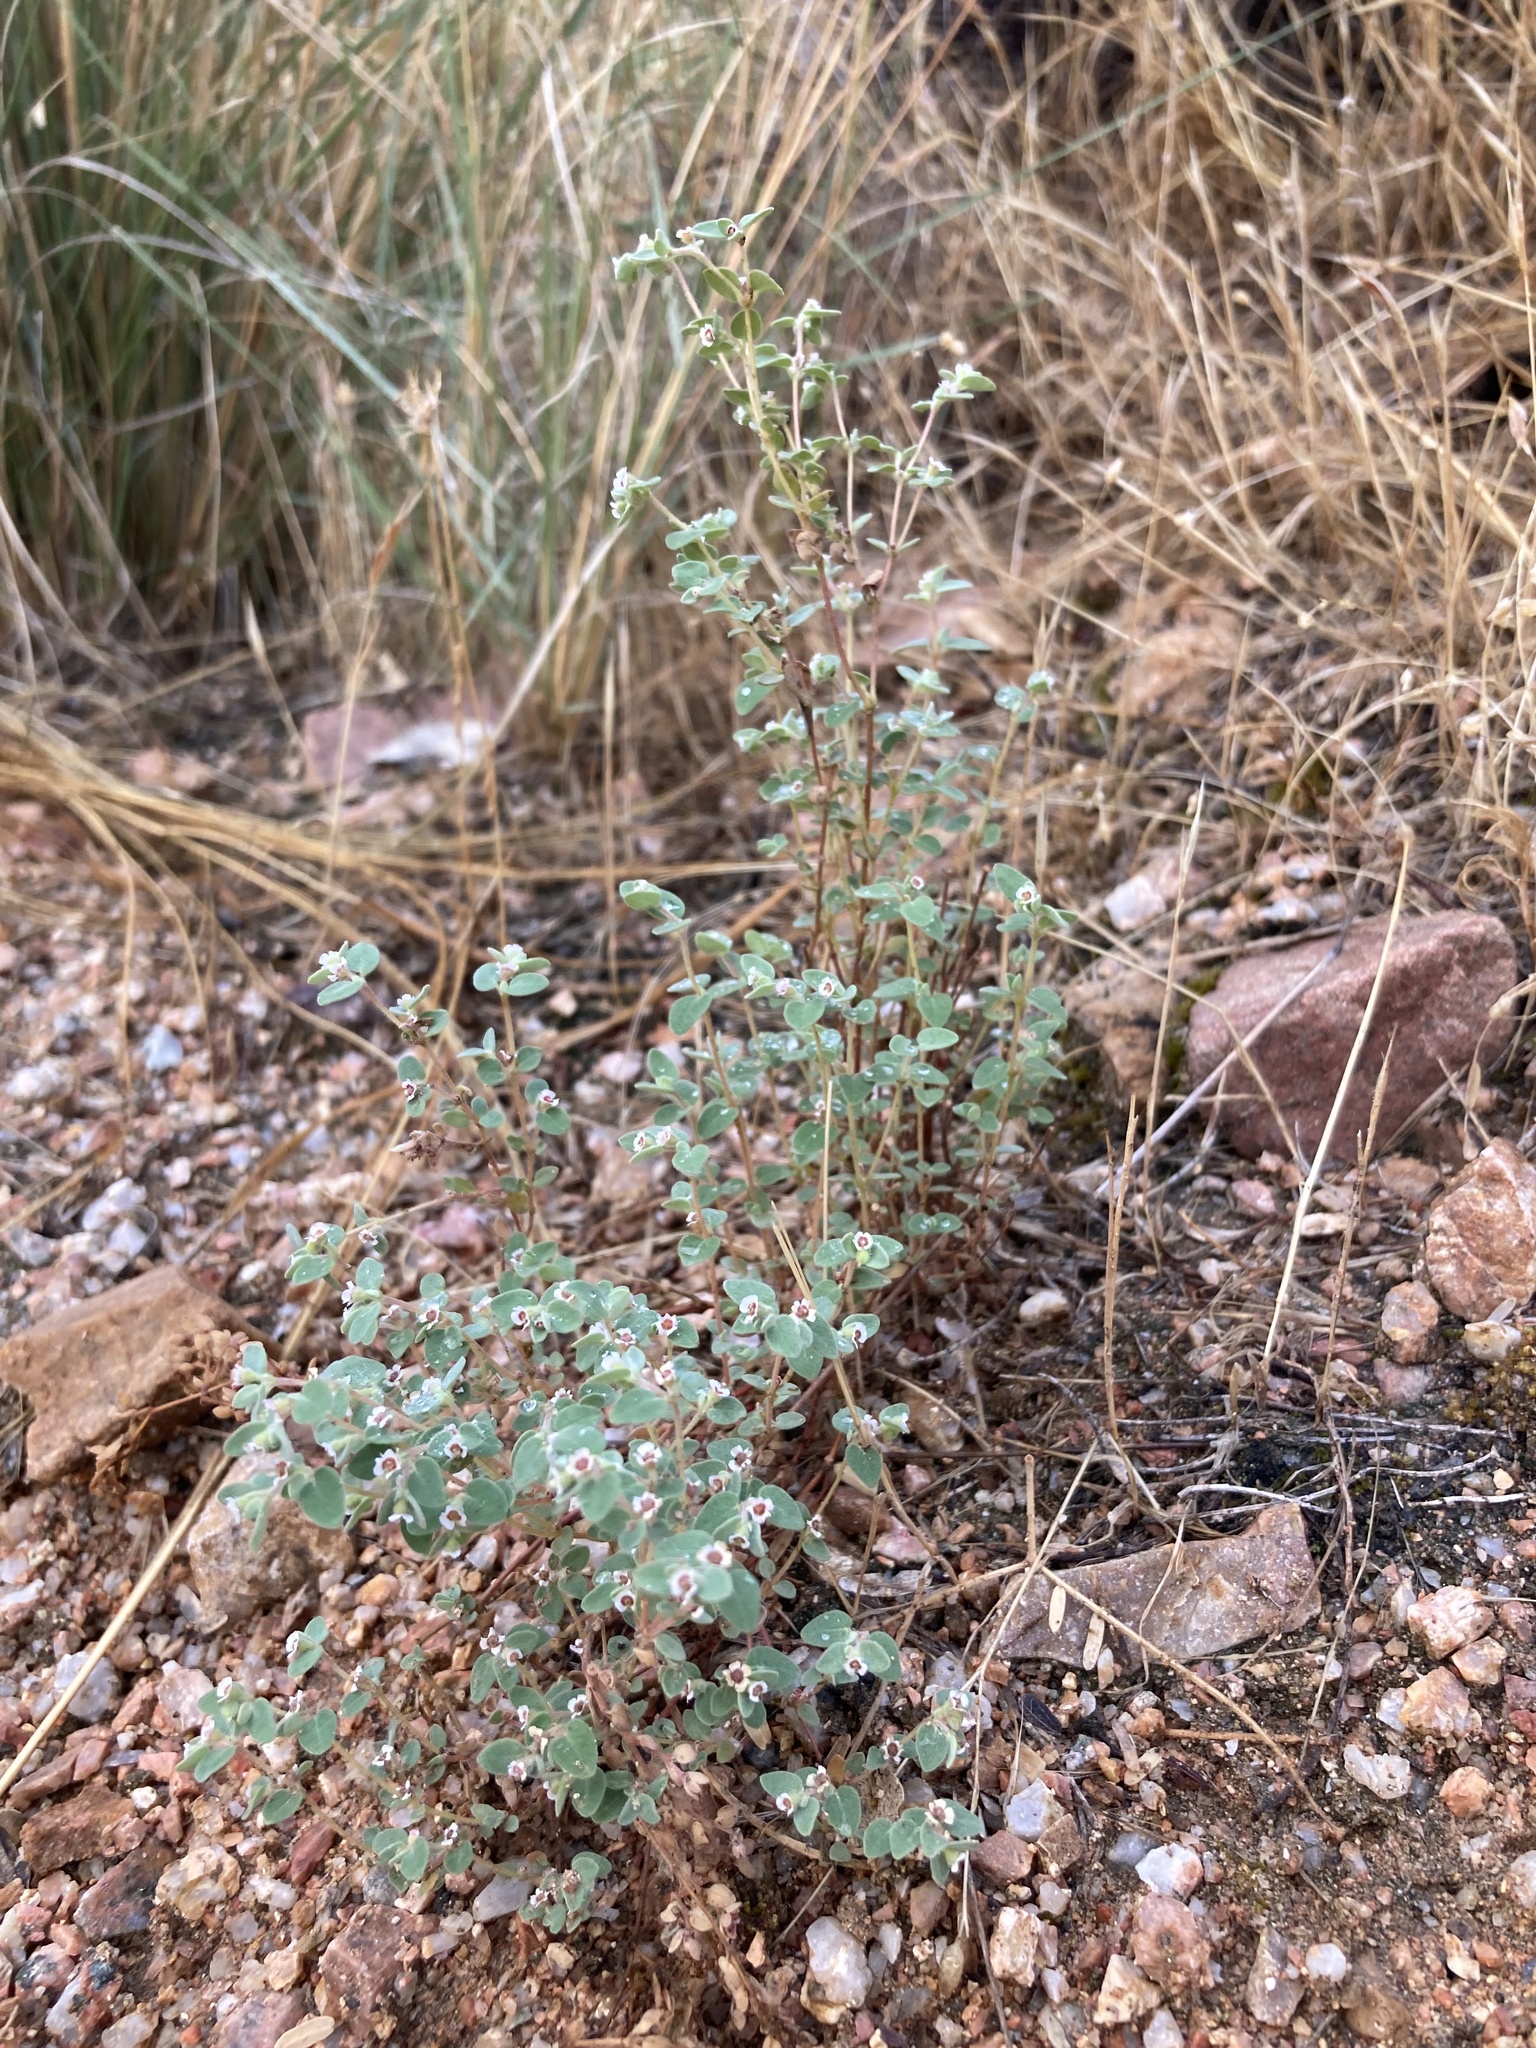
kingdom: Plantae
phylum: Tracheophyta
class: Magnoliopsida
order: Malpighiales
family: Euphorbiaceae
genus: Euphorbia
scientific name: Euphorbia melanadenia
